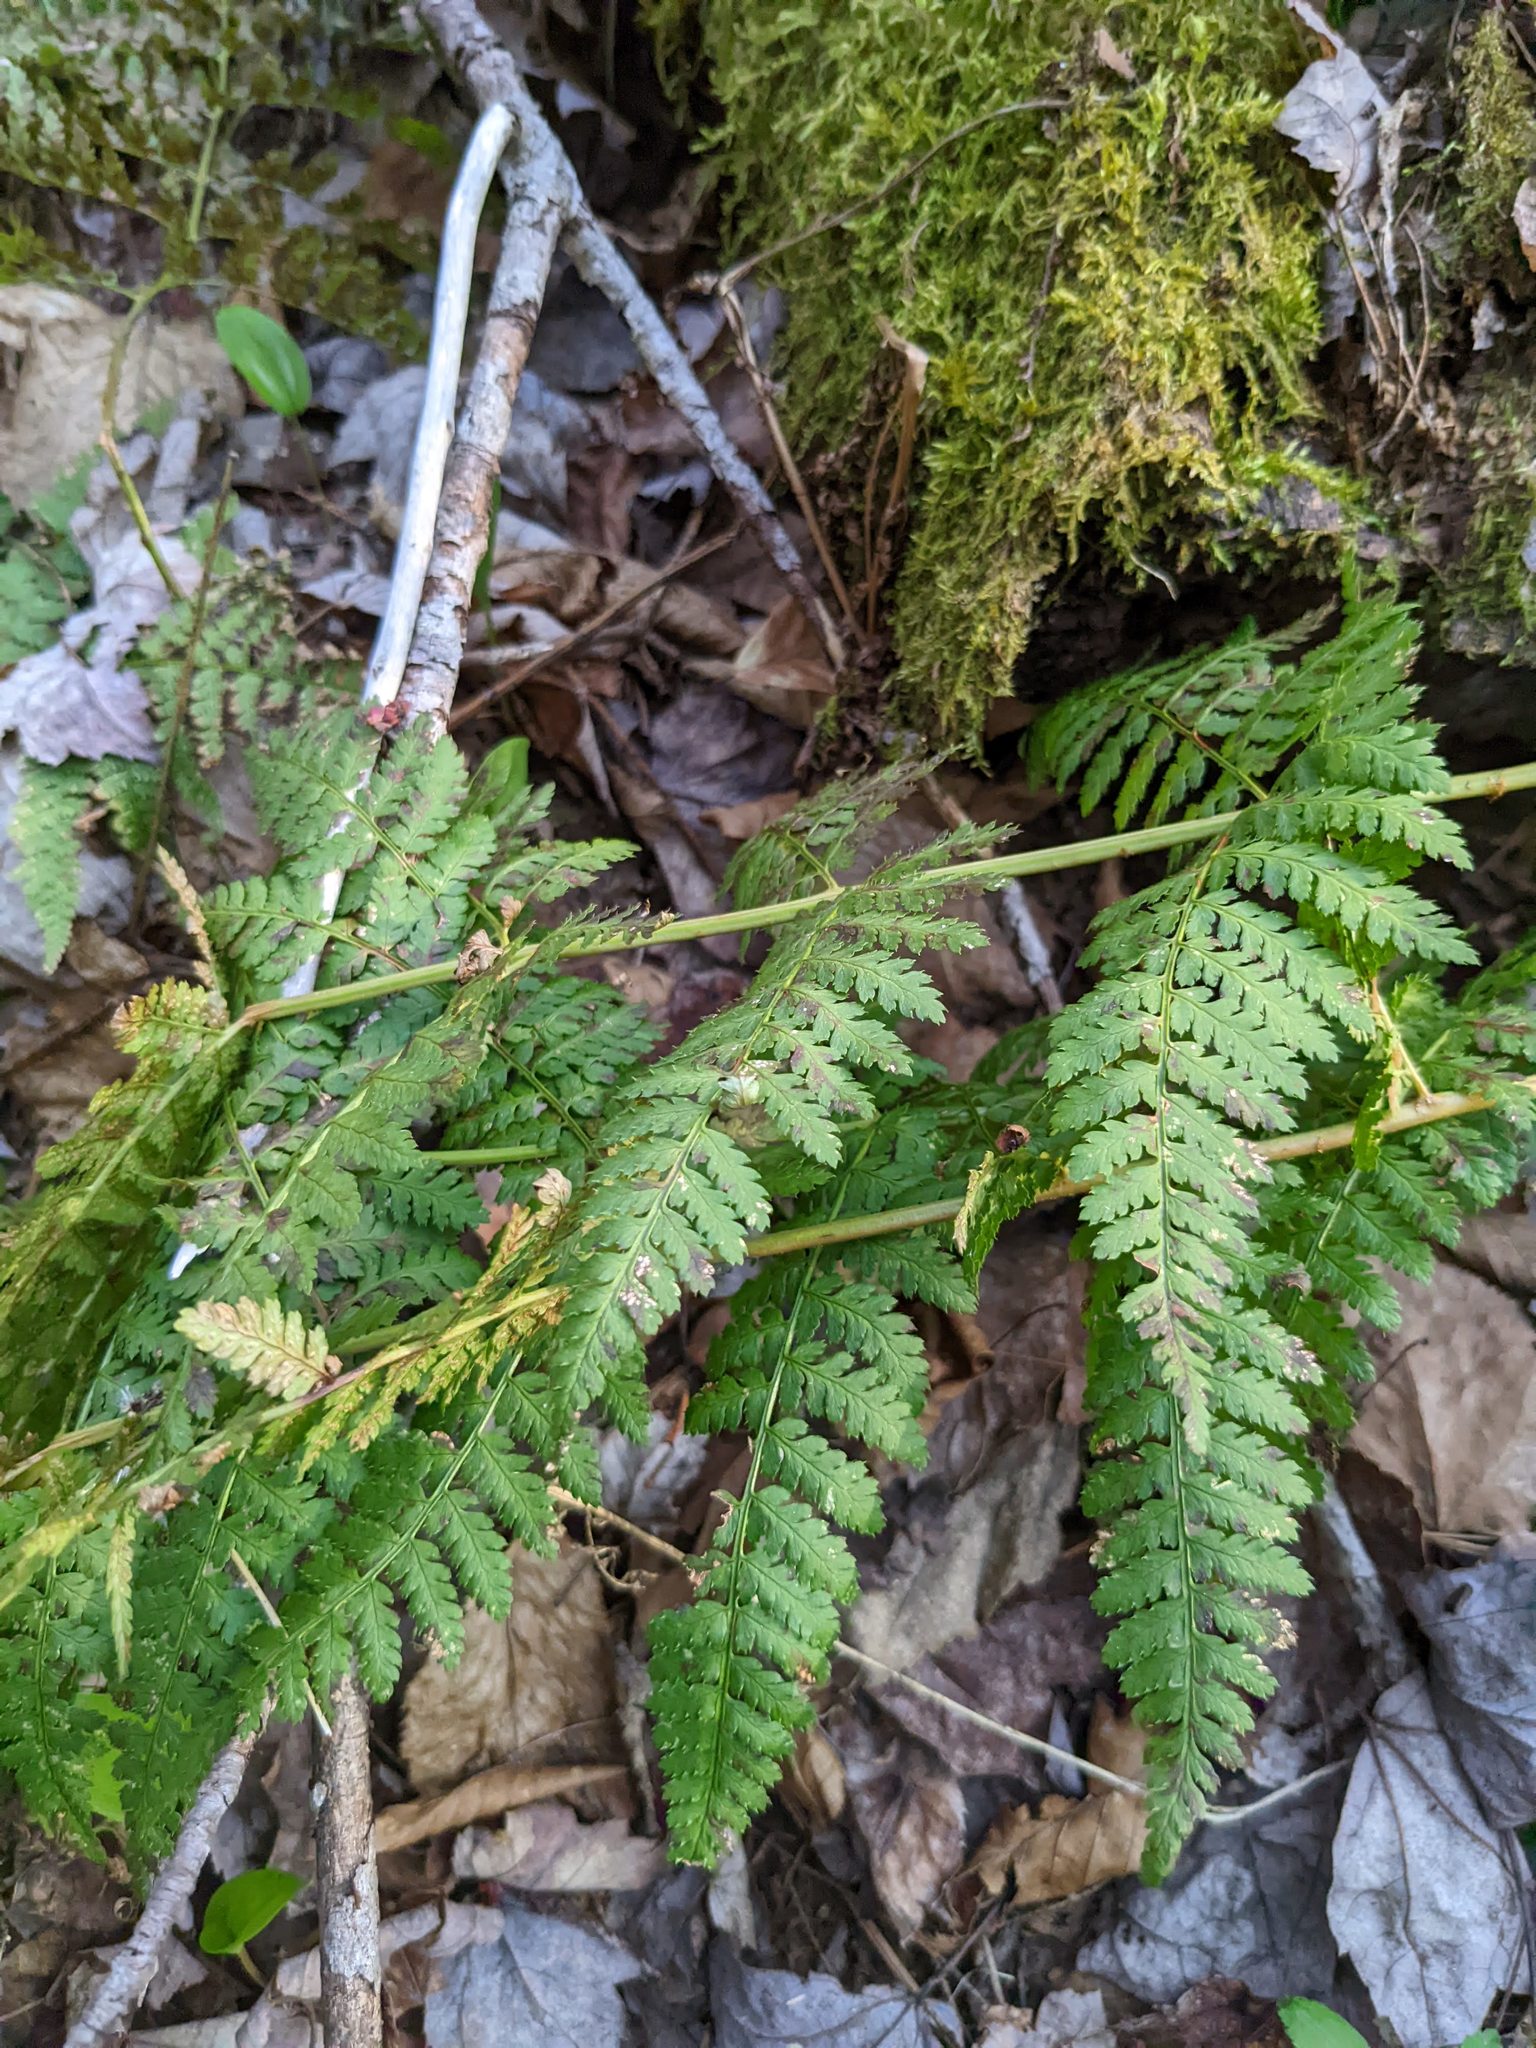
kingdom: Plantae
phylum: Tracheophyta
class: Polypodiopsida
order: Polypodiales
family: Dryopteridaceae
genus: Dryopteris
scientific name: Dryopteris intermedia
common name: Evergreen wood fern
